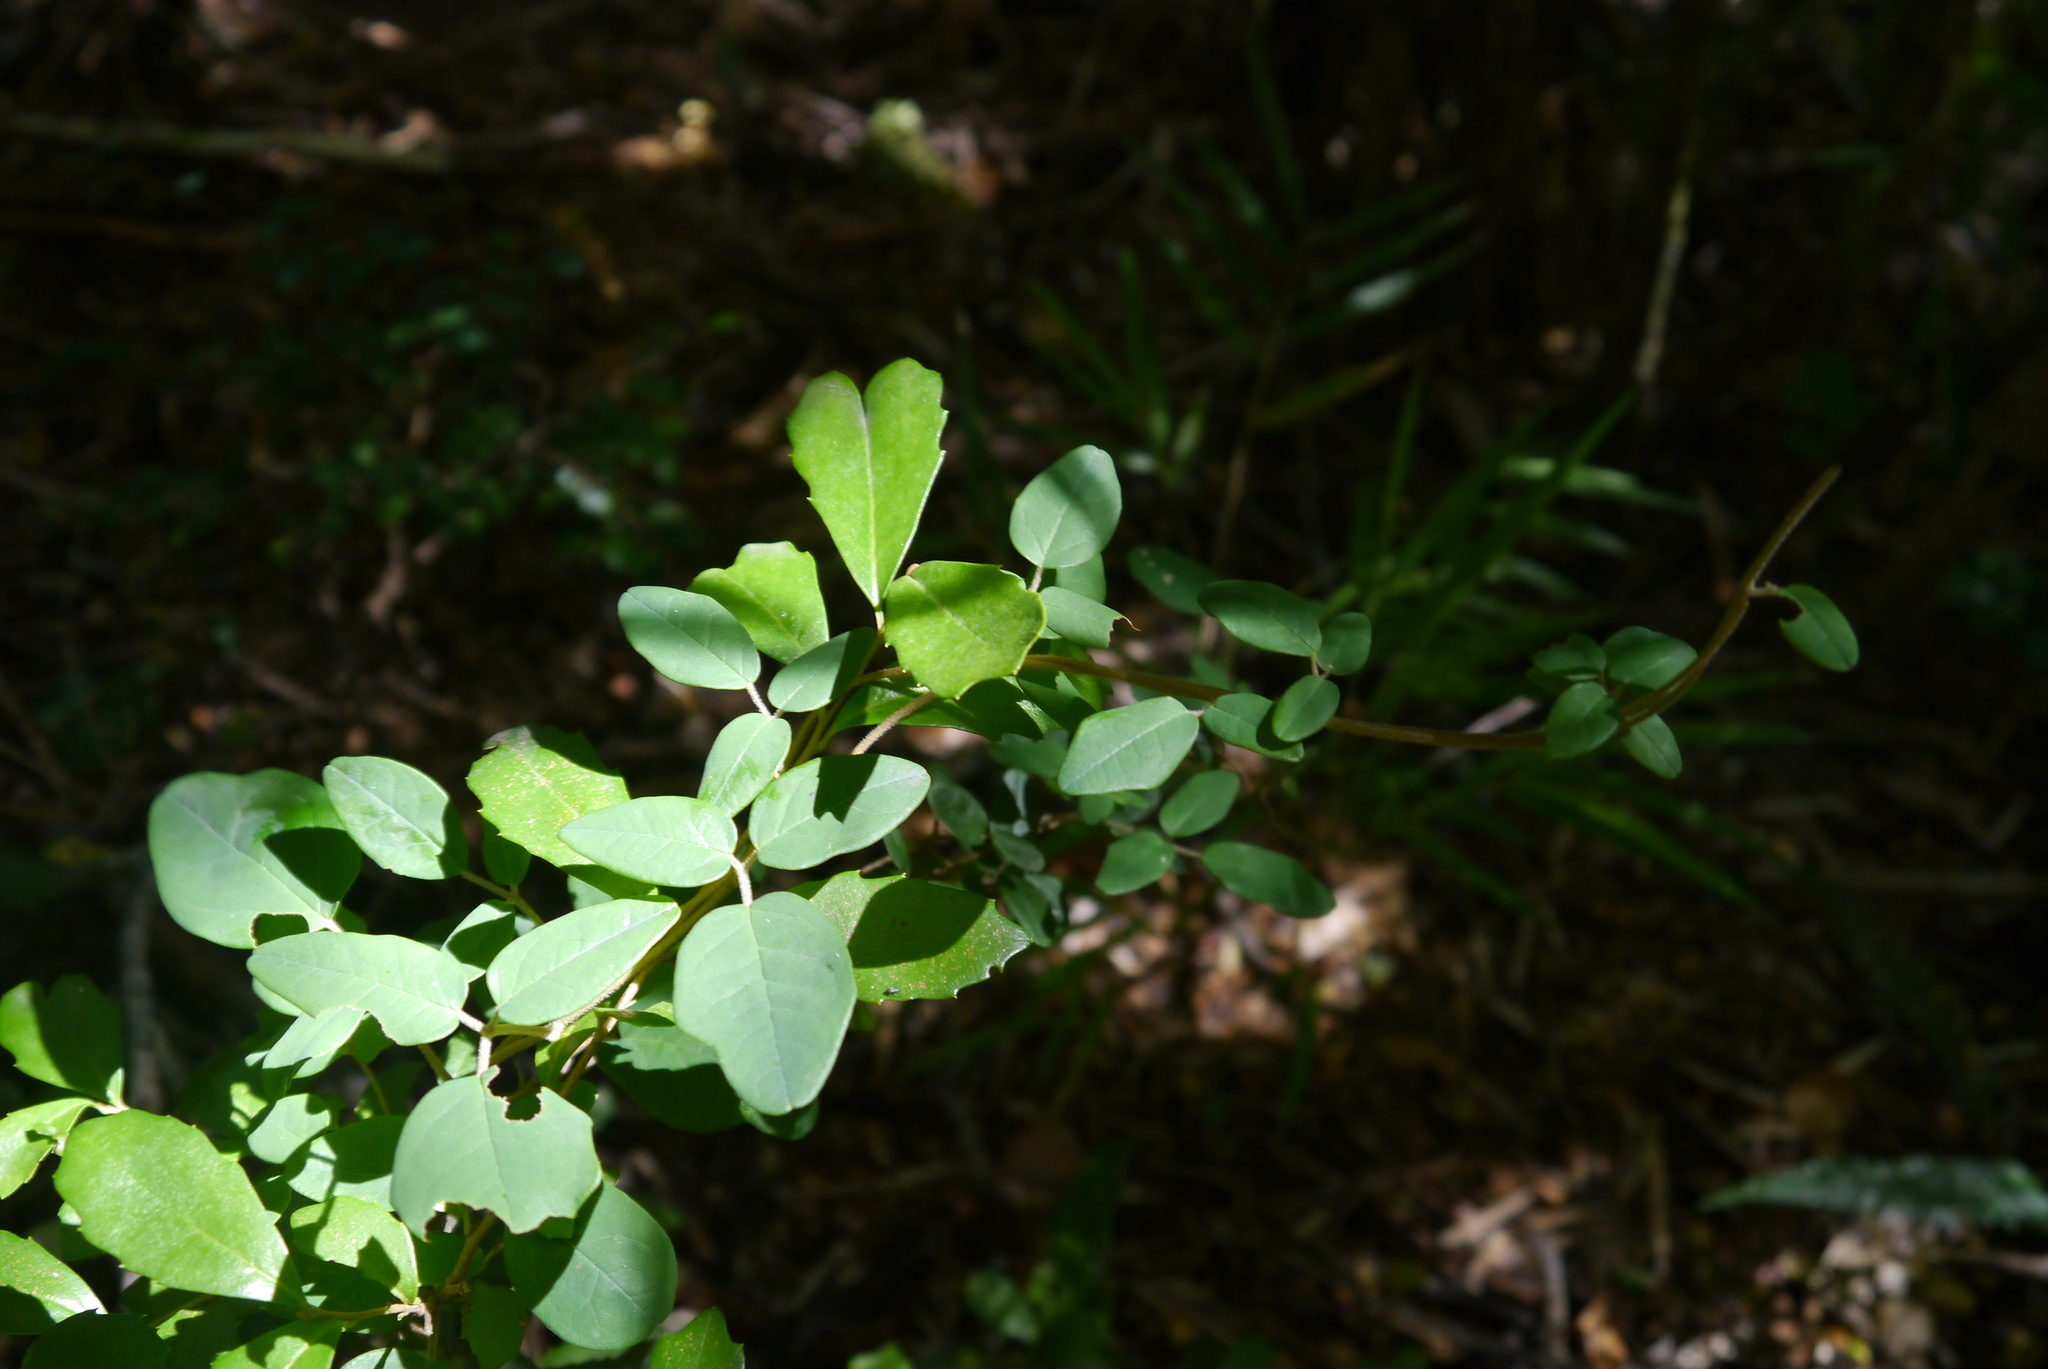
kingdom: Plantae
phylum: Tracheophyta
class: Magnoliopsida
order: Ranunculales
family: Lardizabalaceae
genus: Boquila
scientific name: Boquila trifoliolata
